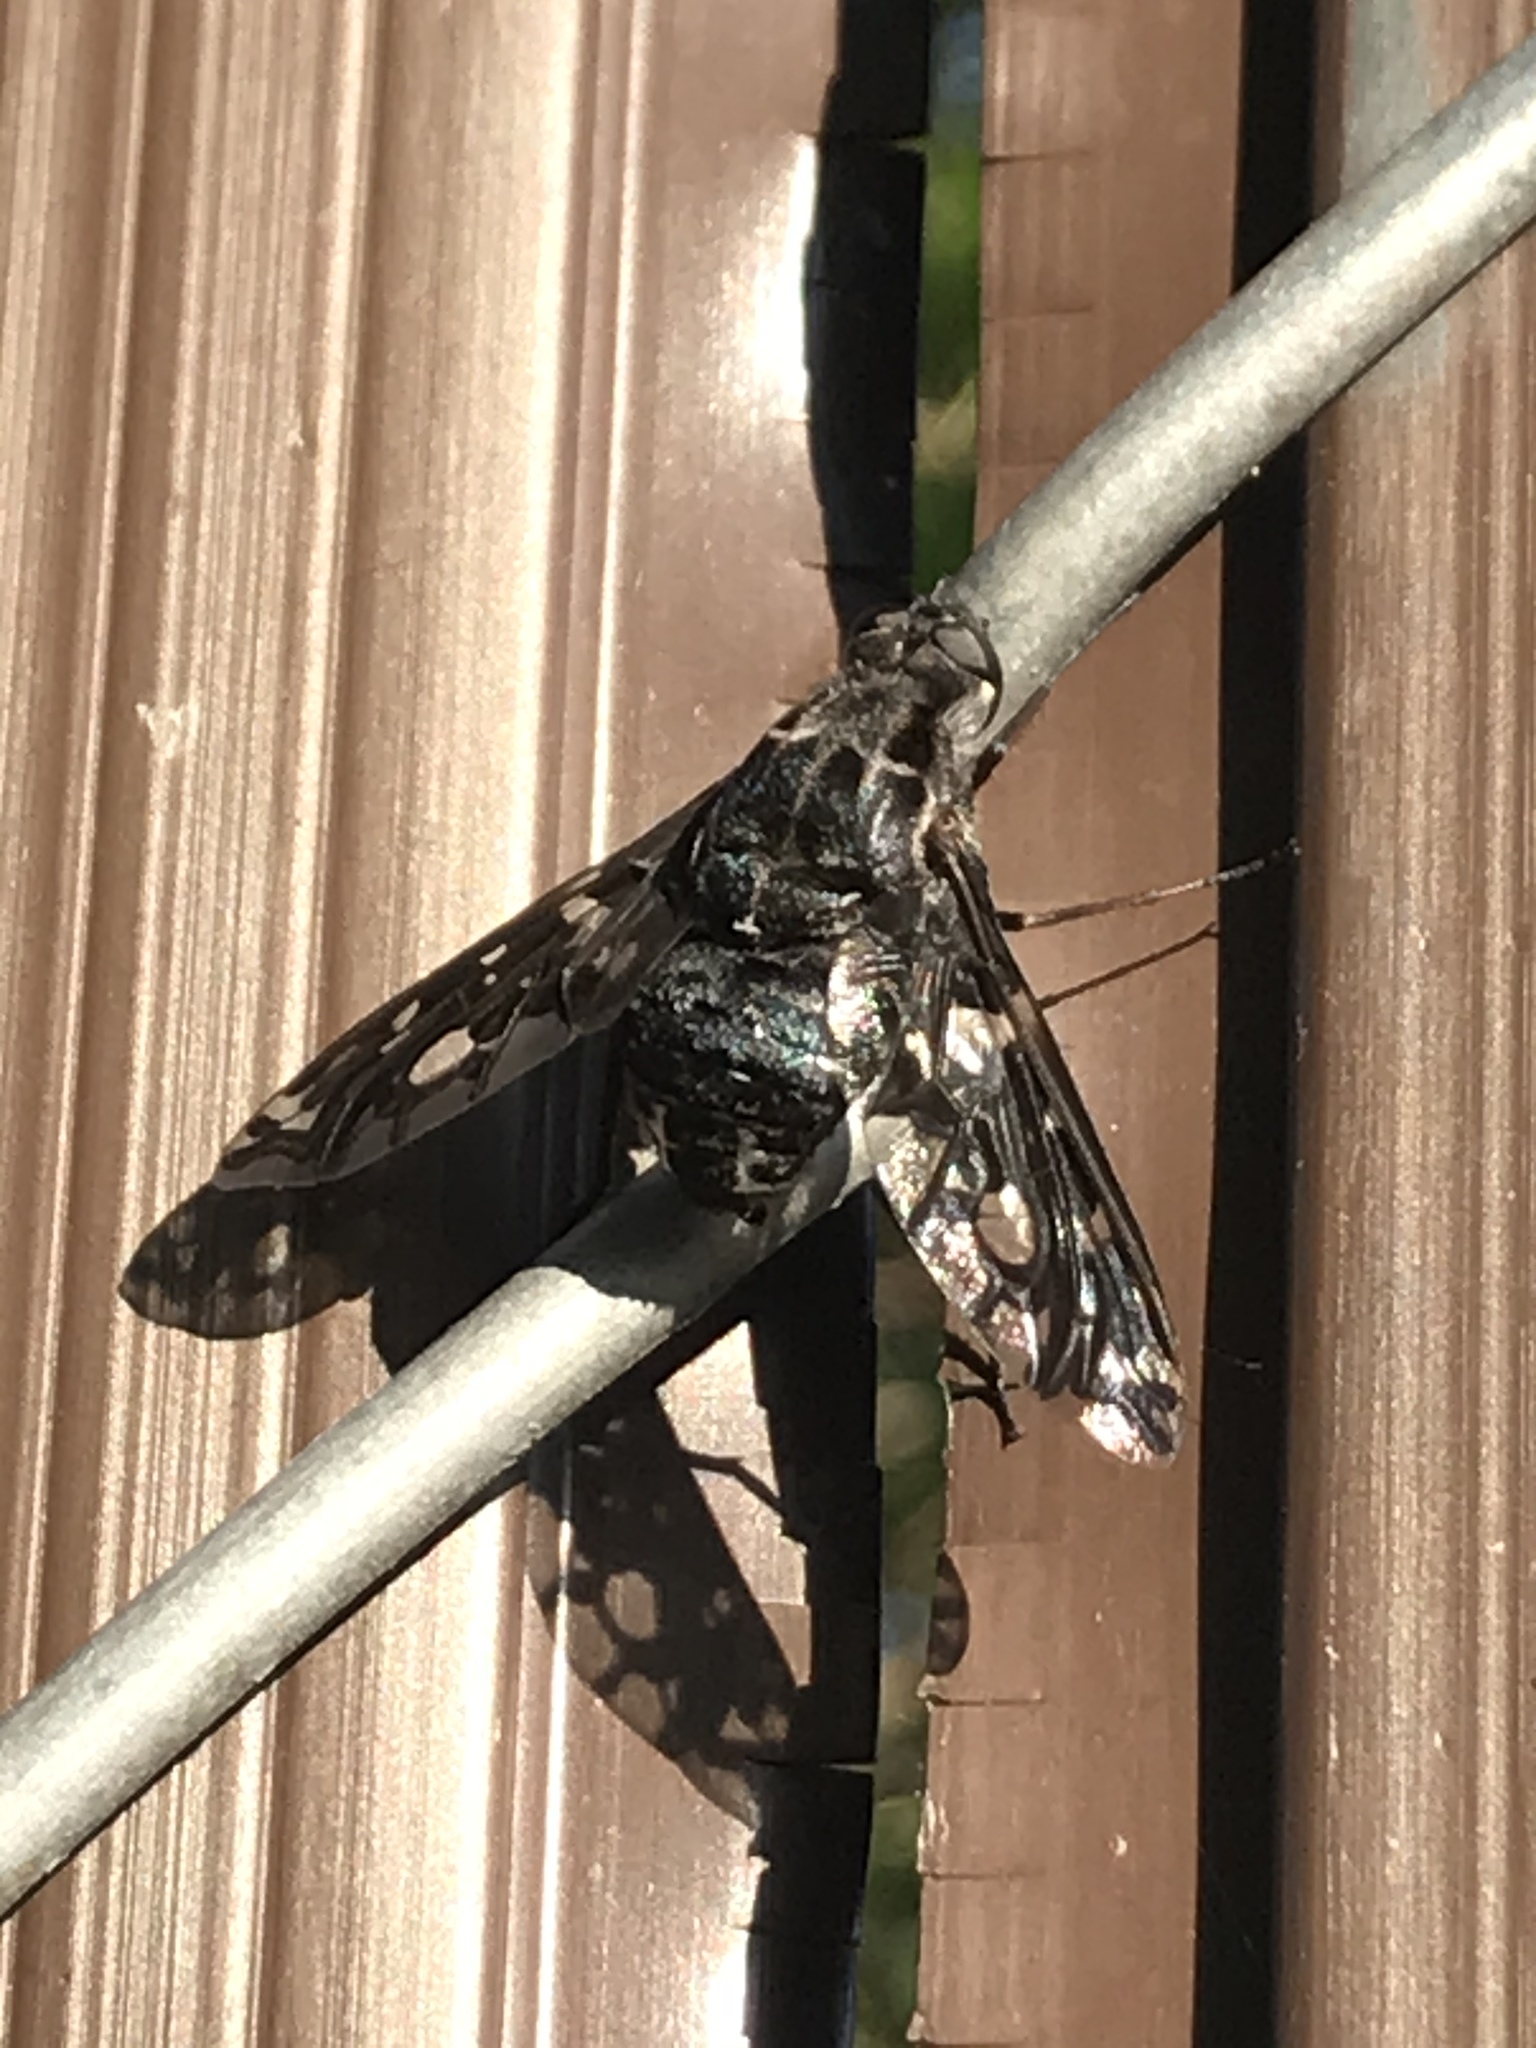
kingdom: Animalia
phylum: Arthropoda
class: Insecta
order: Diptera
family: Bombyliidae
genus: Xenox
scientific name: Xenox tigrinus
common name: Tiger bee fly
